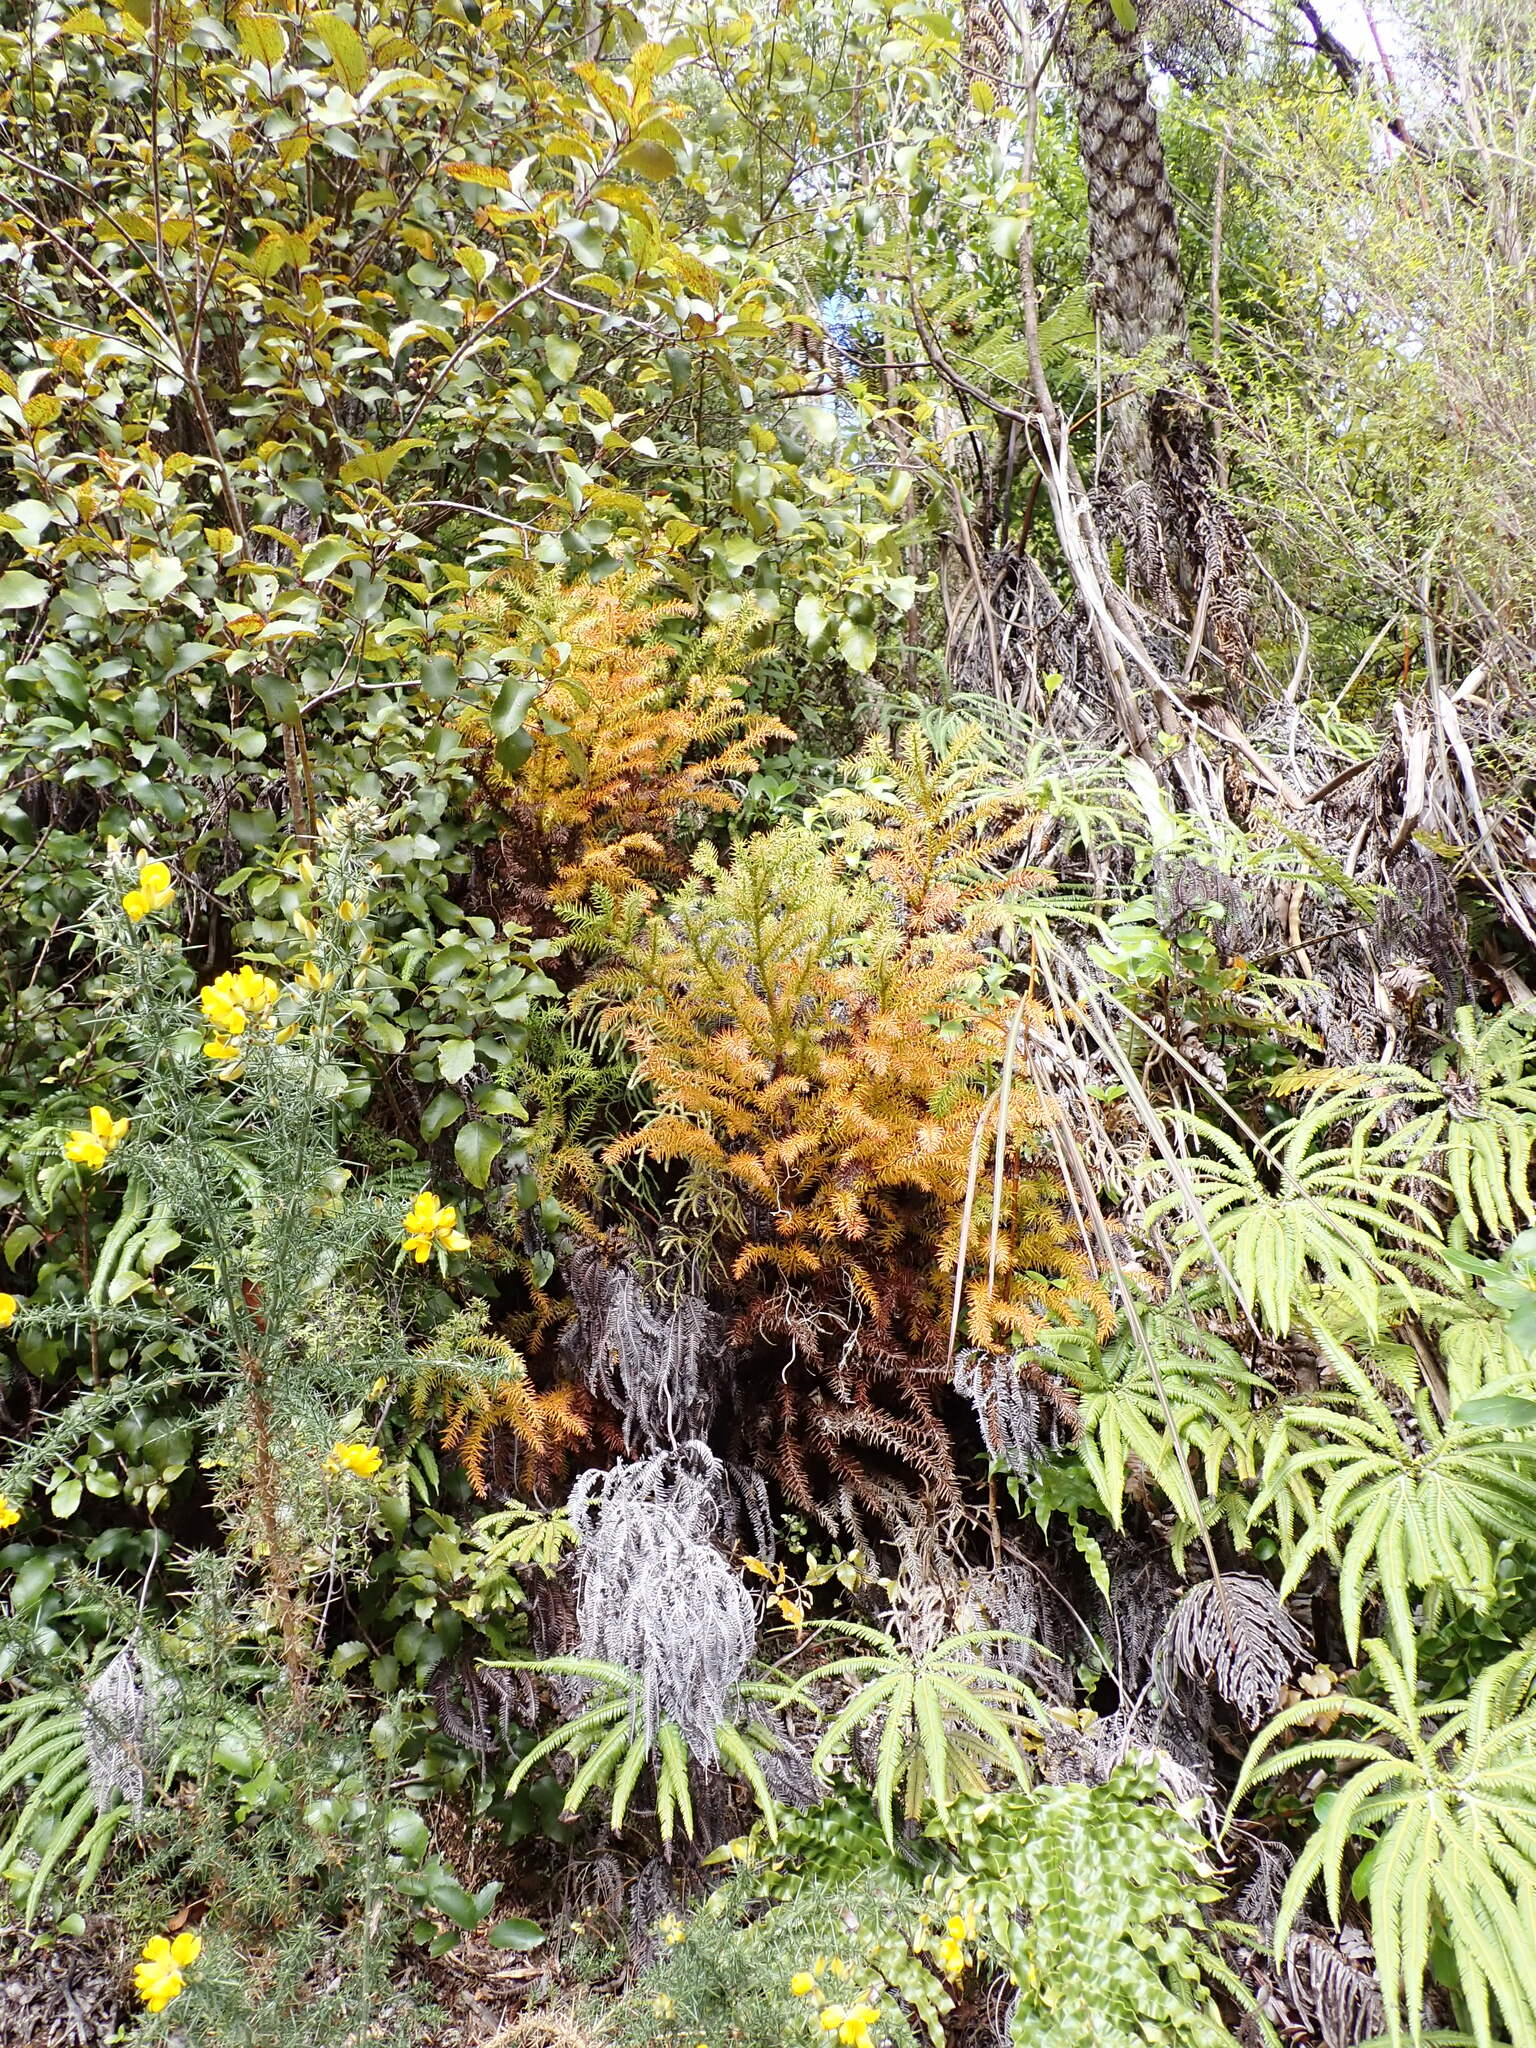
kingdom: Plantae
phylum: Tracheophyta
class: Pinopsida
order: Pinales
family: Cupressaceae
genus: Cryptomeria
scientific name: Cryptomeria japonica
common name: Japanese cedar
